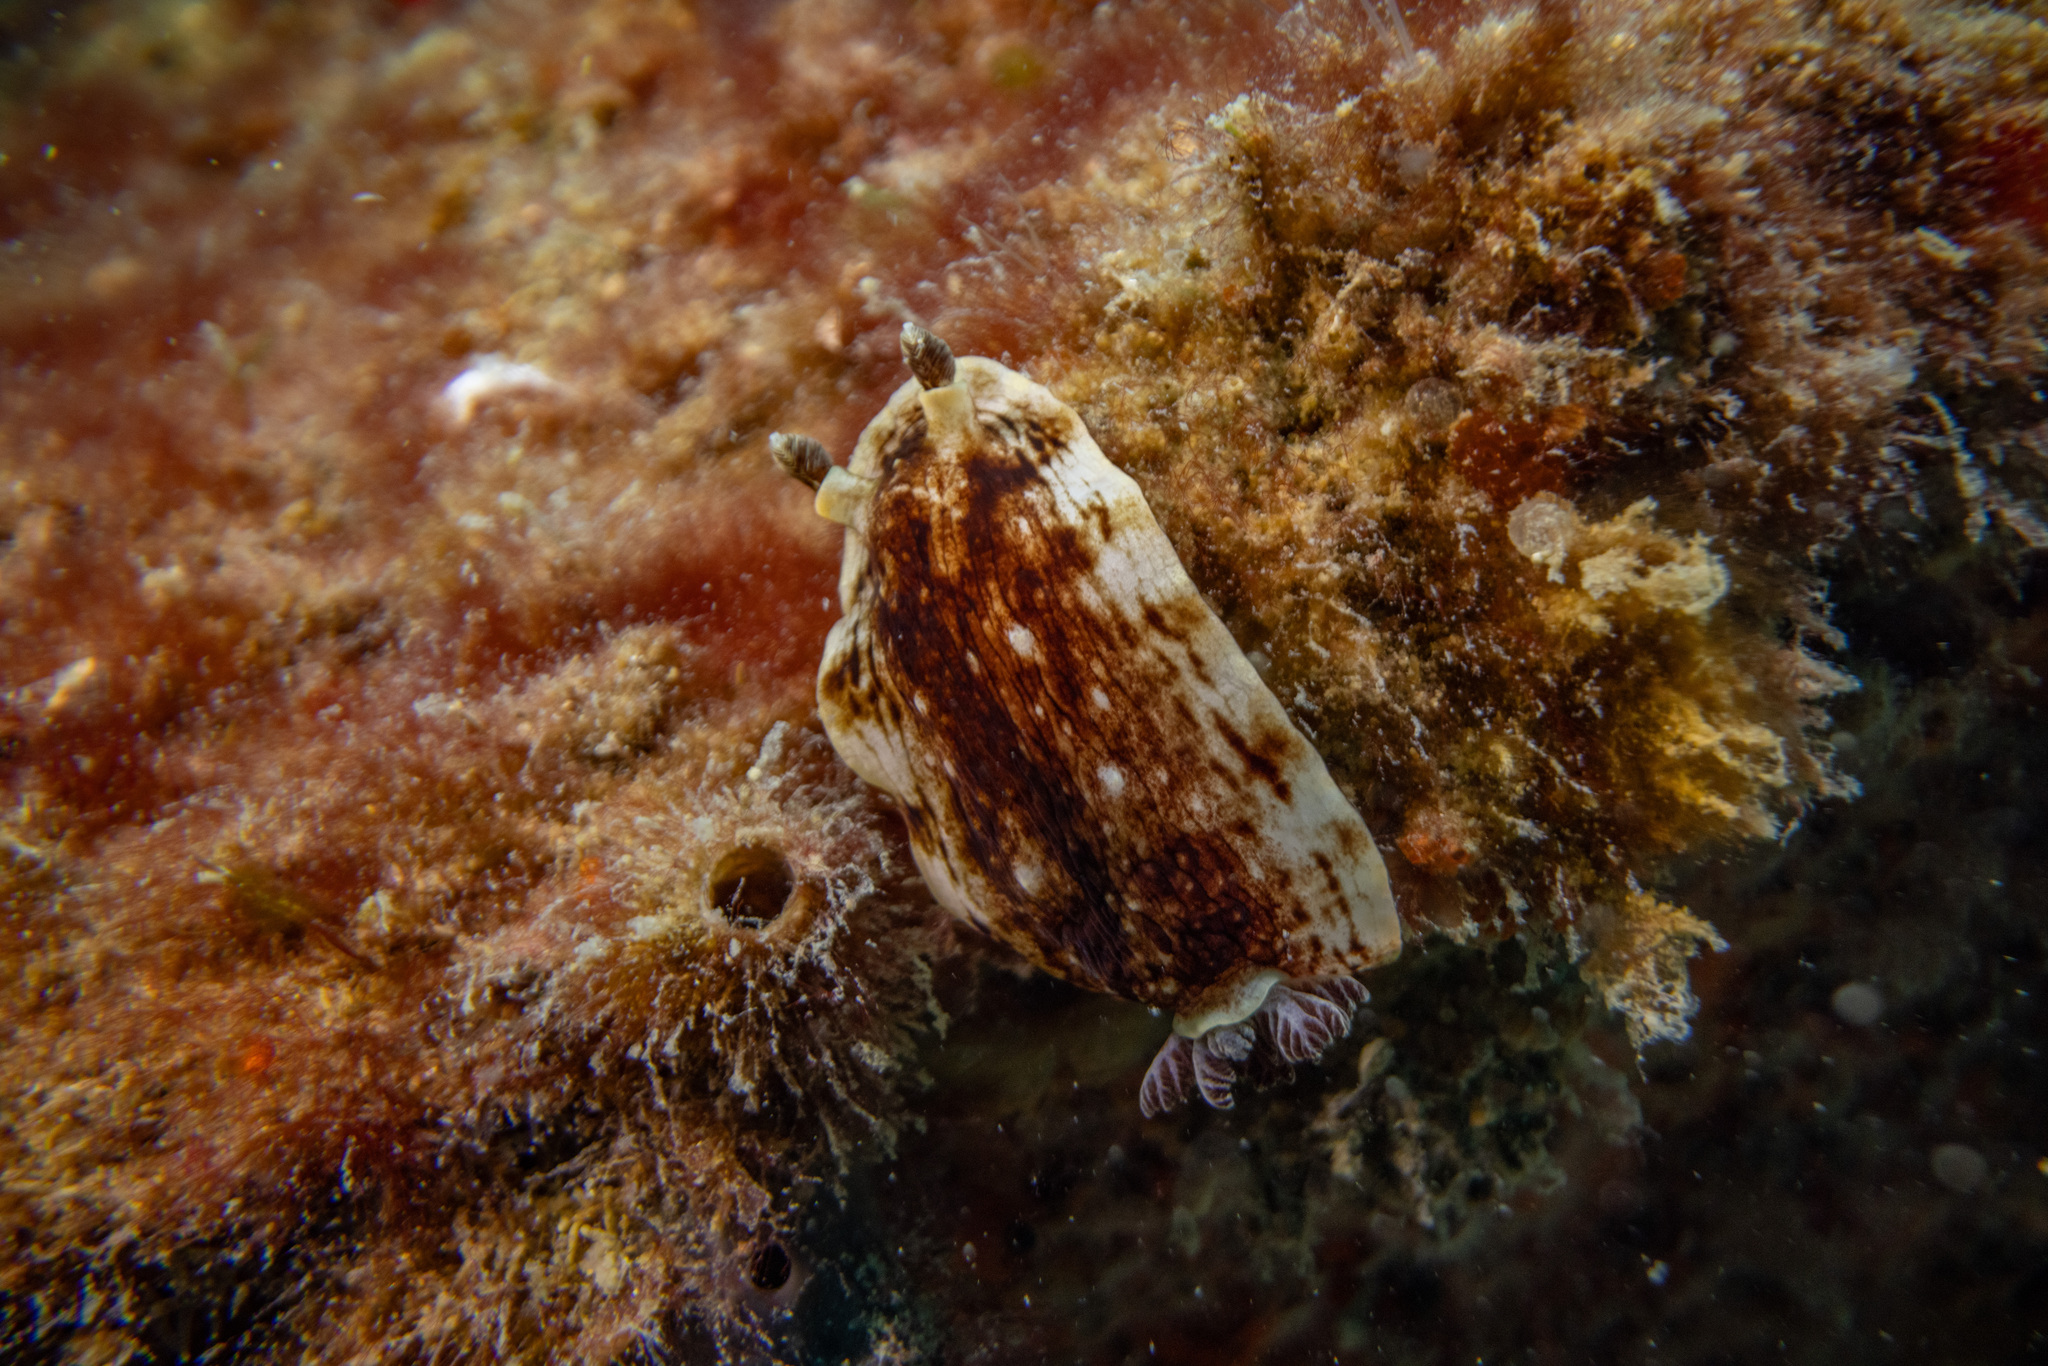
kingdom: Animalia
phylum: Mollusca
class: Gastropoda
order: Nudibranchia
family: Dorididae
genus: Aphelodoris
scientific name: Aphelodoris luctuosa
